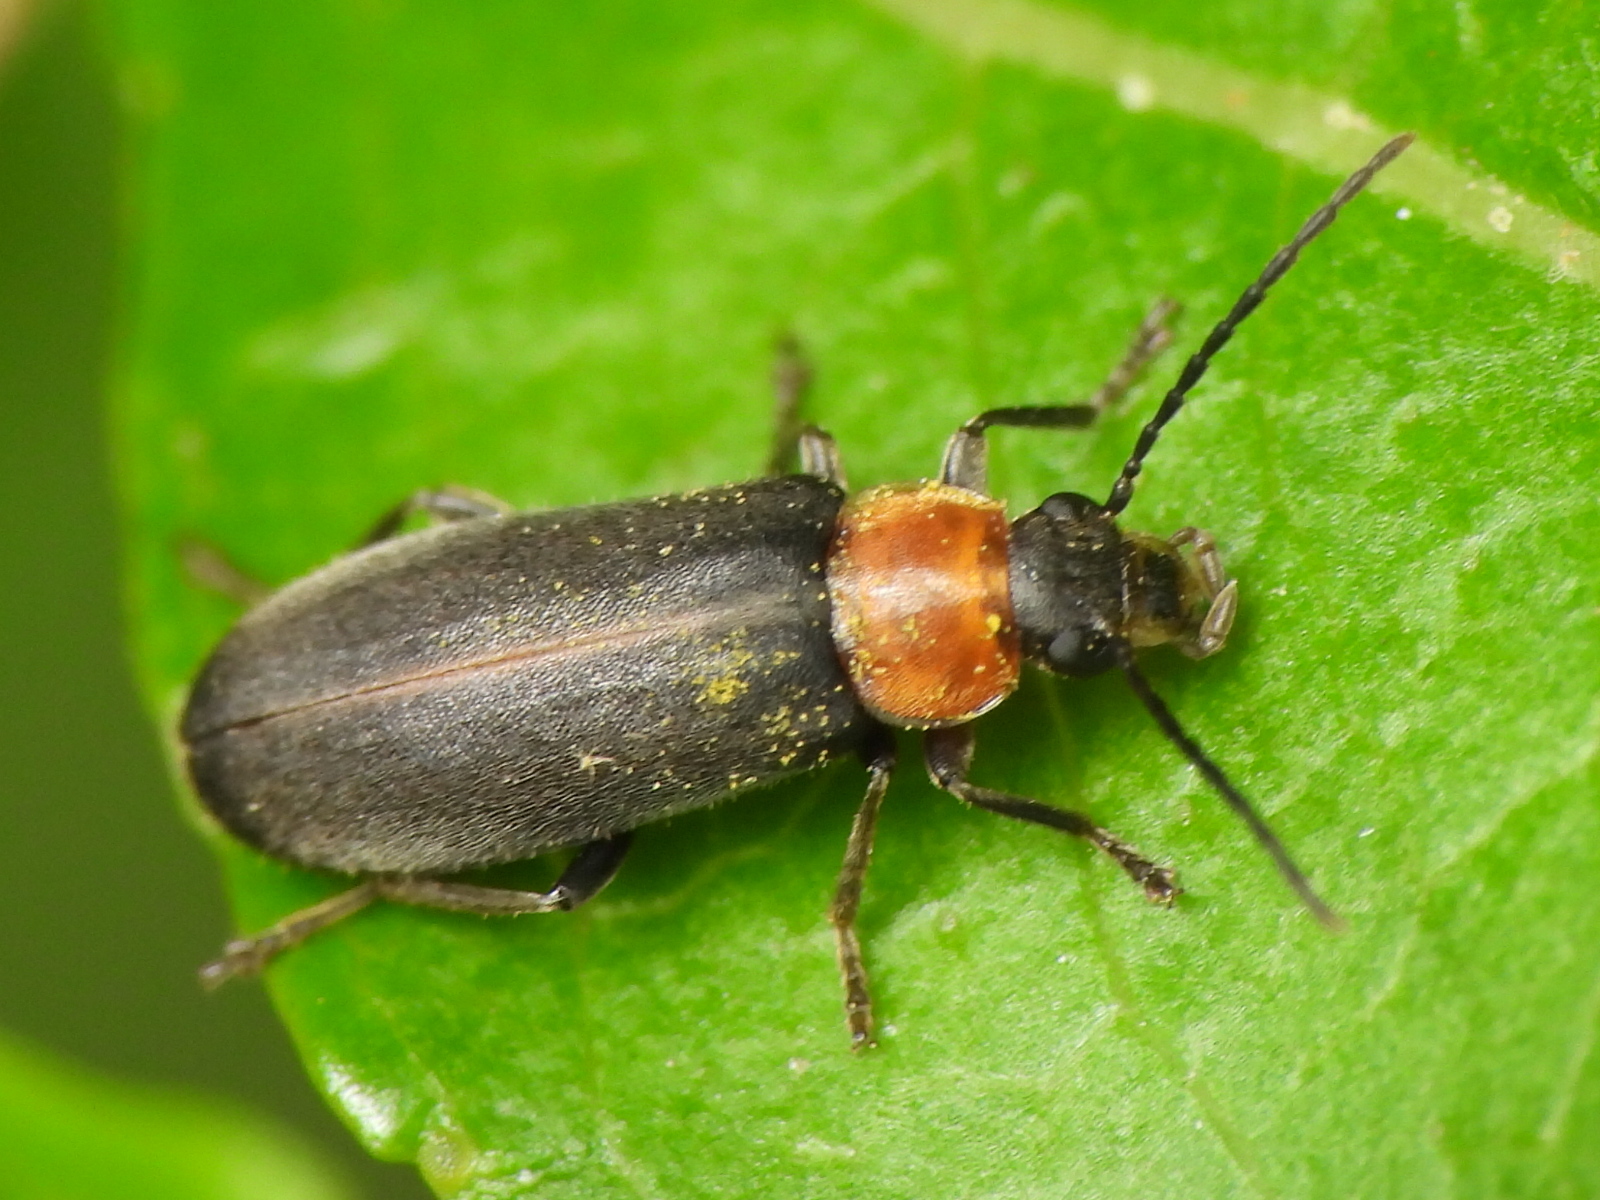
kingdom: Animalia
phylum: Arthropoda
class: Insecta
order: Coleoptera
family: Melandryidae
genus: Osphya
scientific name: Osphya varians
